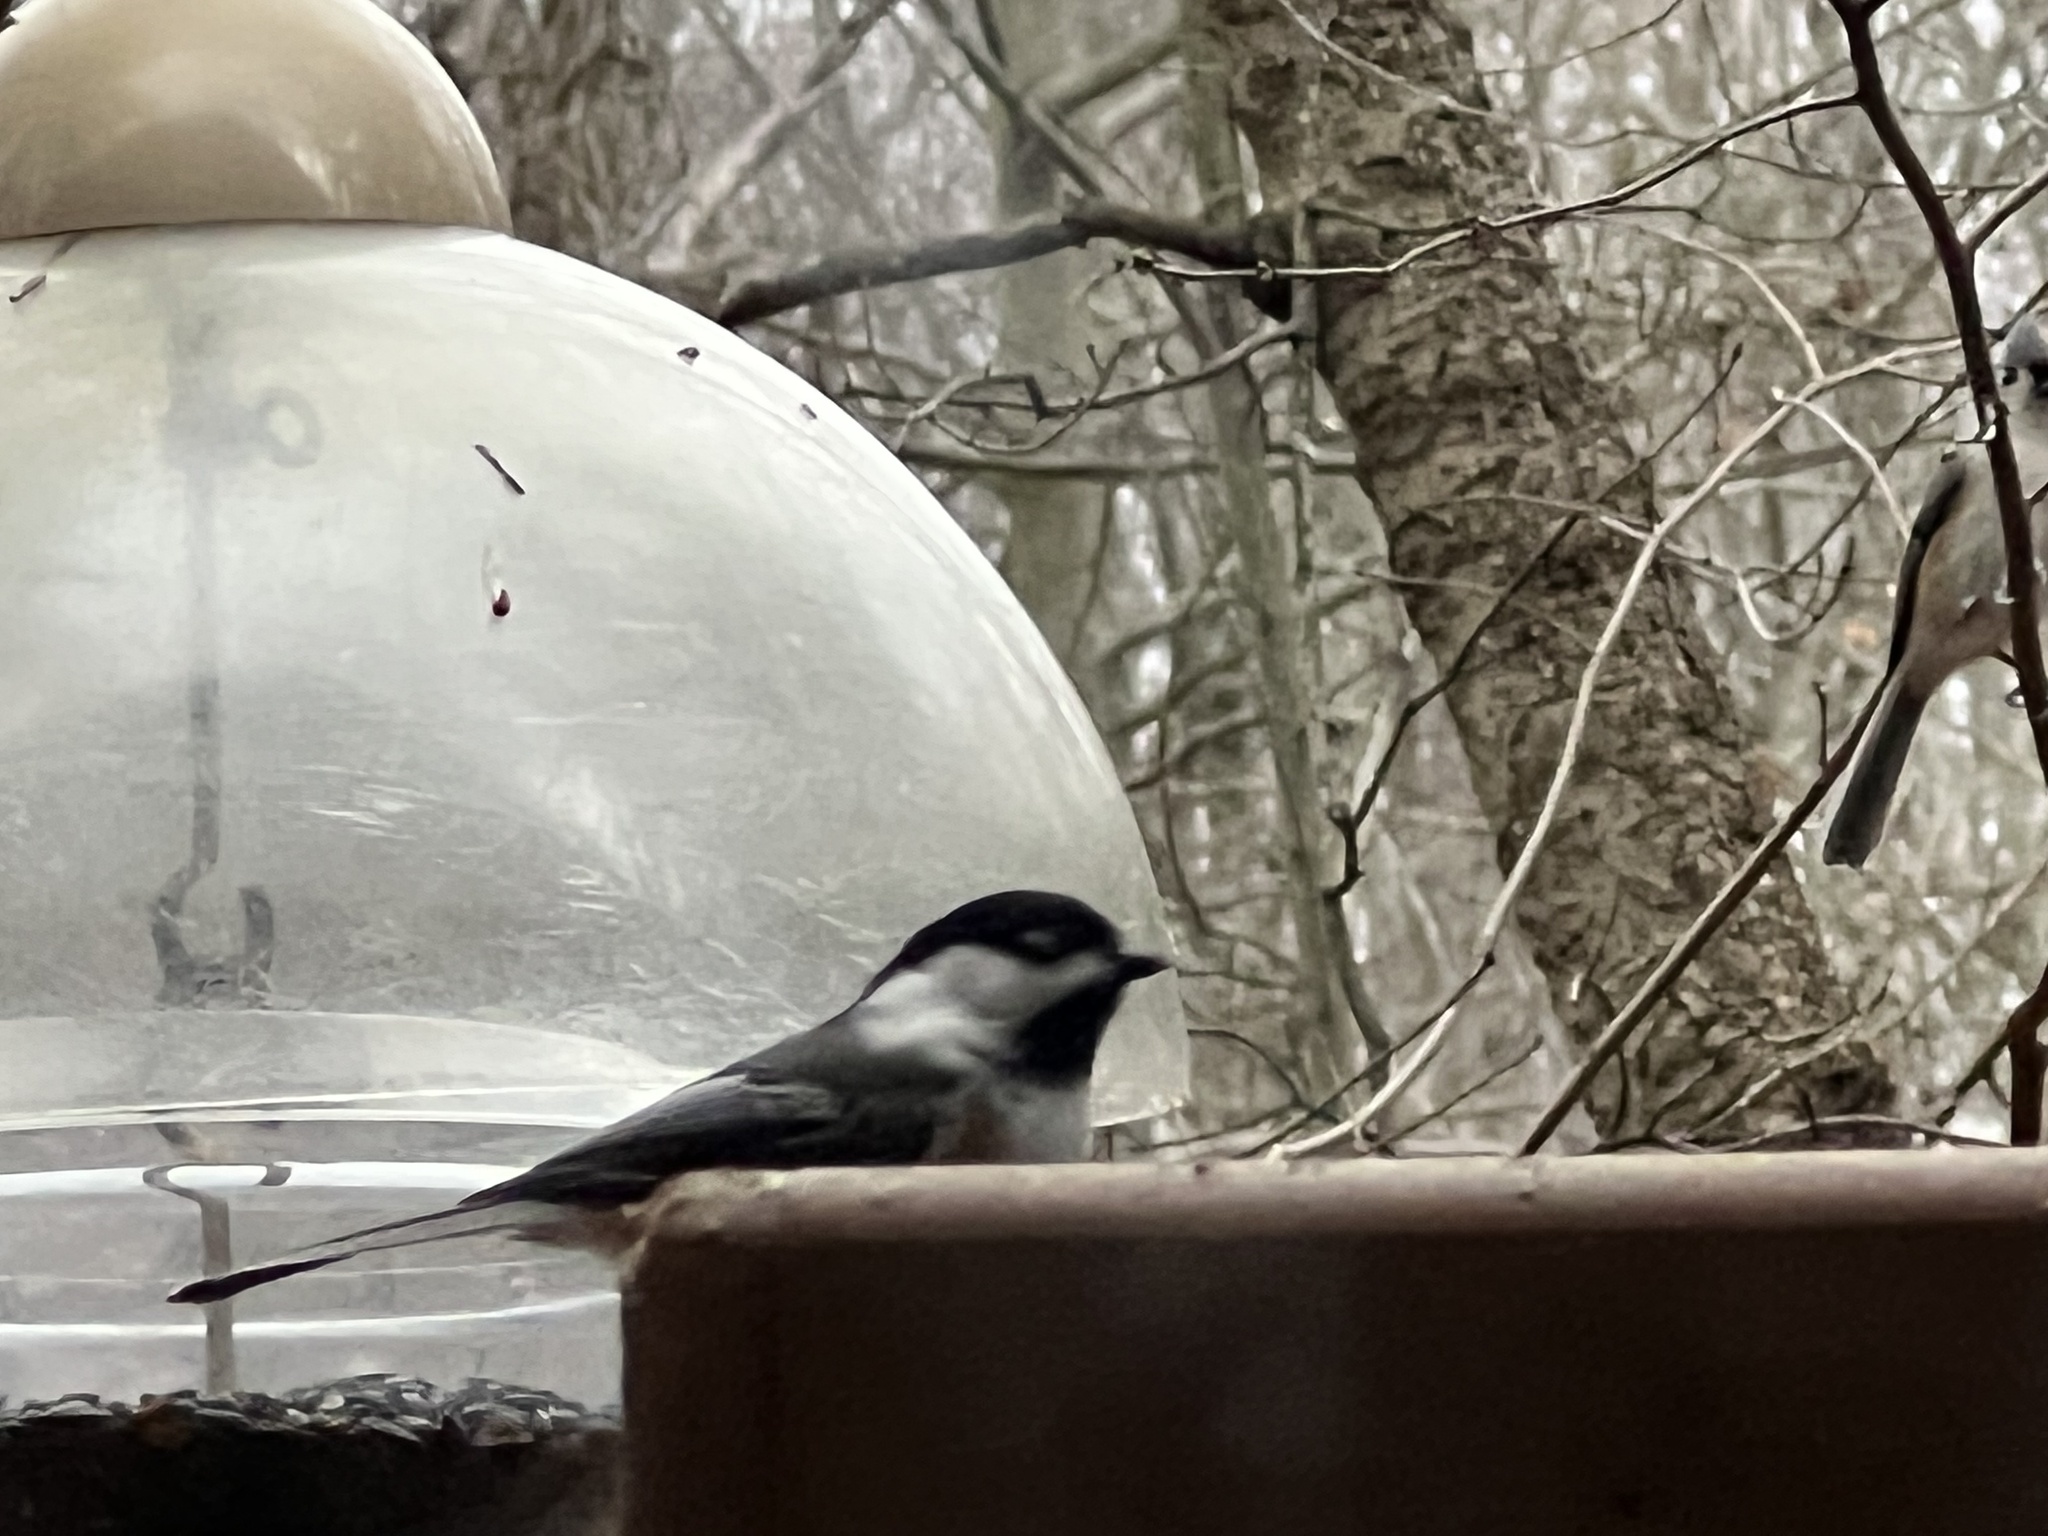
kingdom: Animalia
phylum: Chordata
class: Aves
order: Passeriformes
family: Paridae
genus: Poecile
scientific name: Poecile atricapillus
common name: Black-capped chickadee
